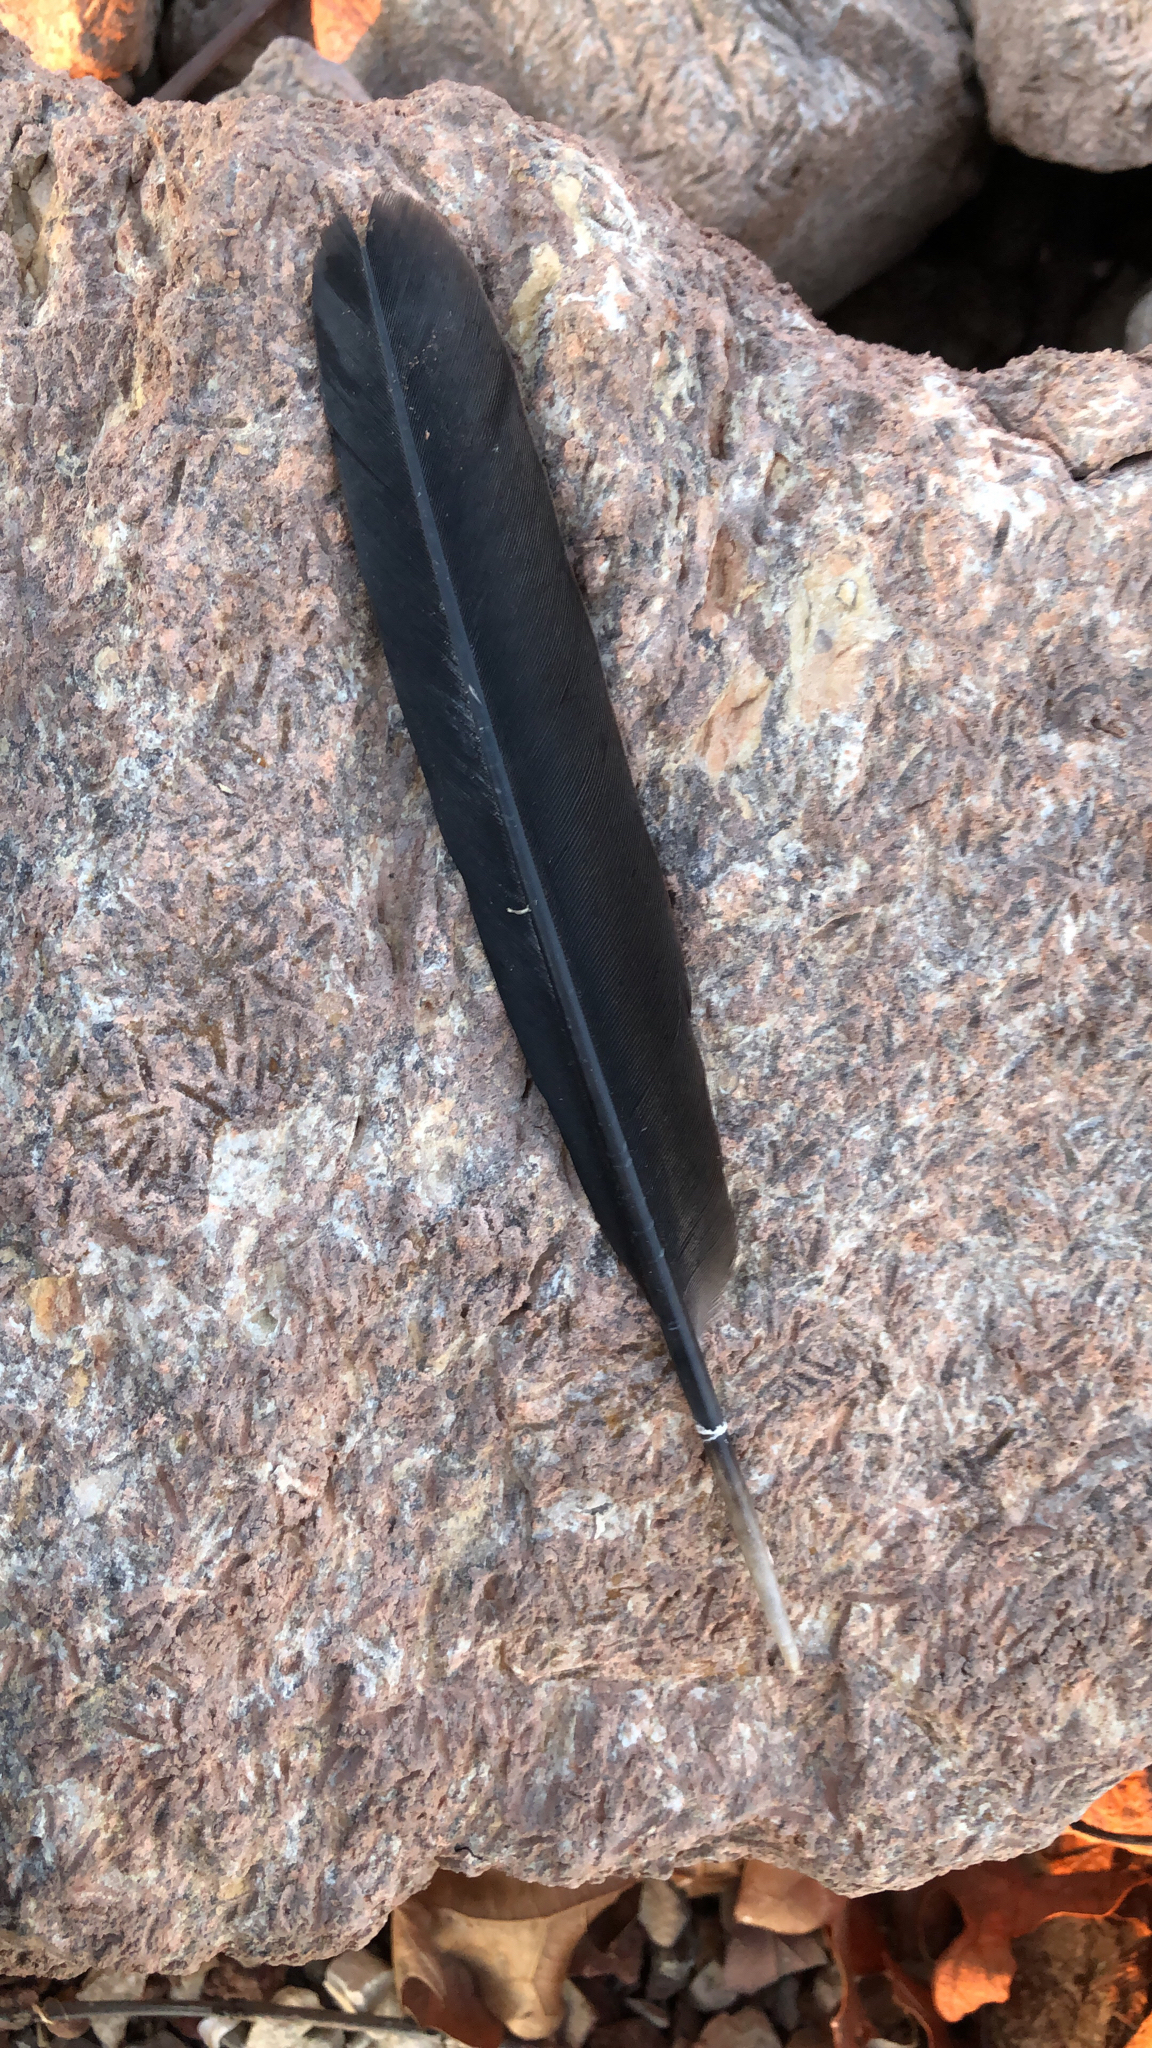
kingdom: Animalia
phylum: Chordata
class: Aves
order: Passeriformes
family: Corvidae
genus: Corvus
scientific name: Corvus brachyrhynchos
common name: American crow
